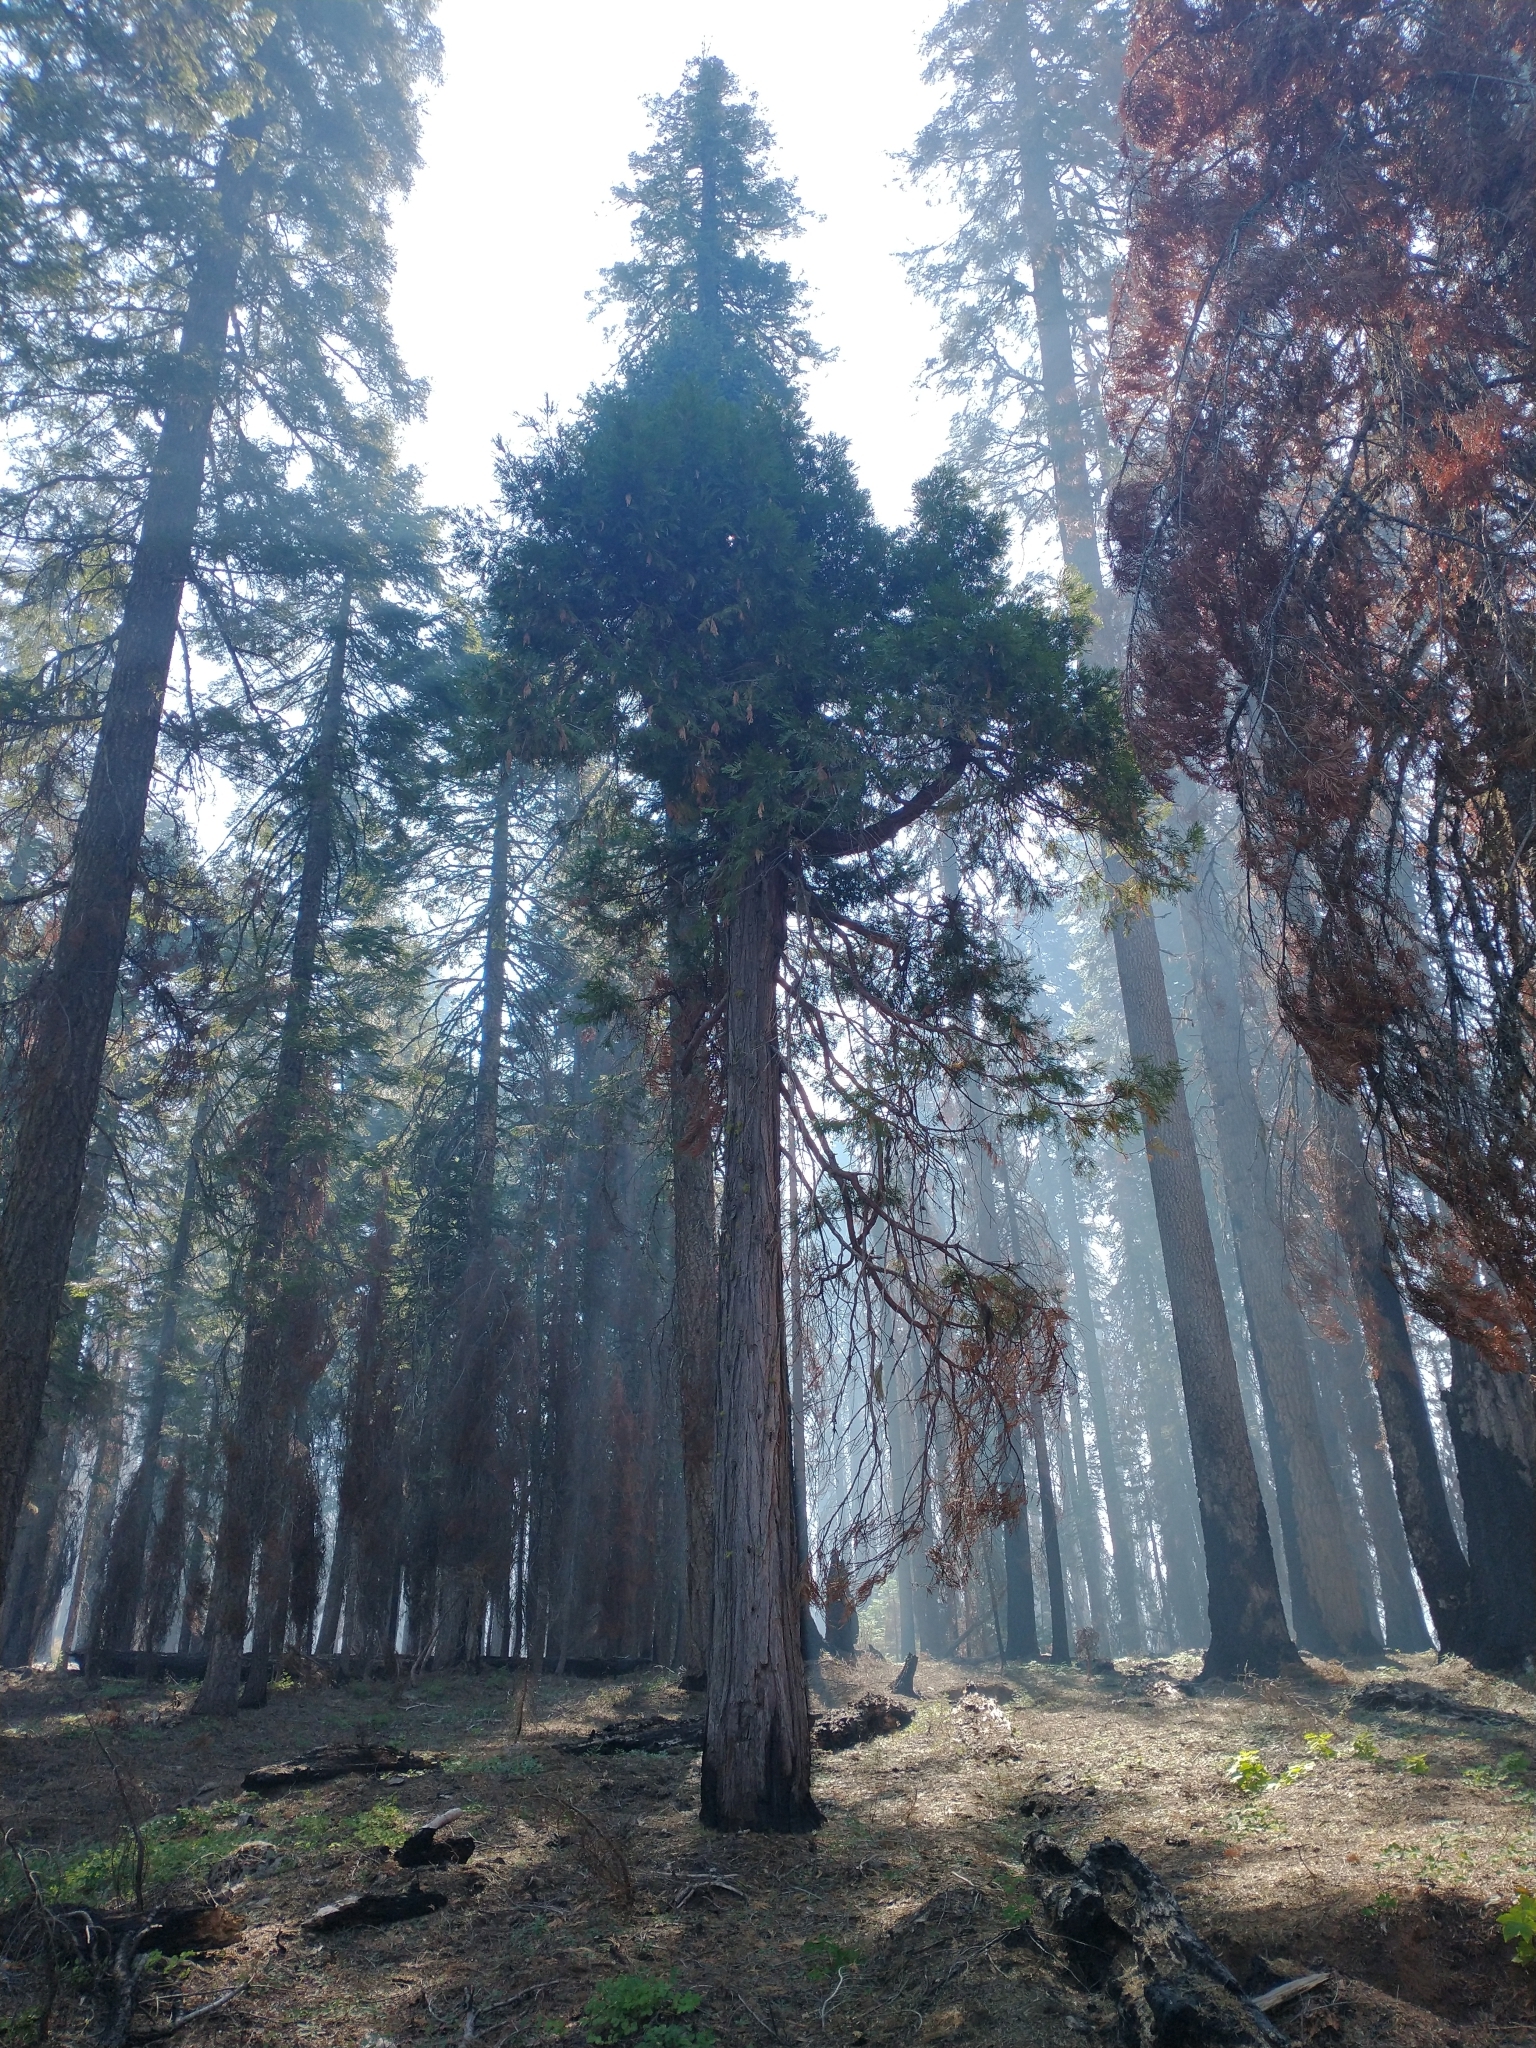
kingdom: Plantae
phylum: Tracheophyta
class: Pinopsida
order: Pinales
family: Cupressaceae
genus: Calocedrus
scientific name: Calocedrus decurrens
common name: Californian incense-cedar
